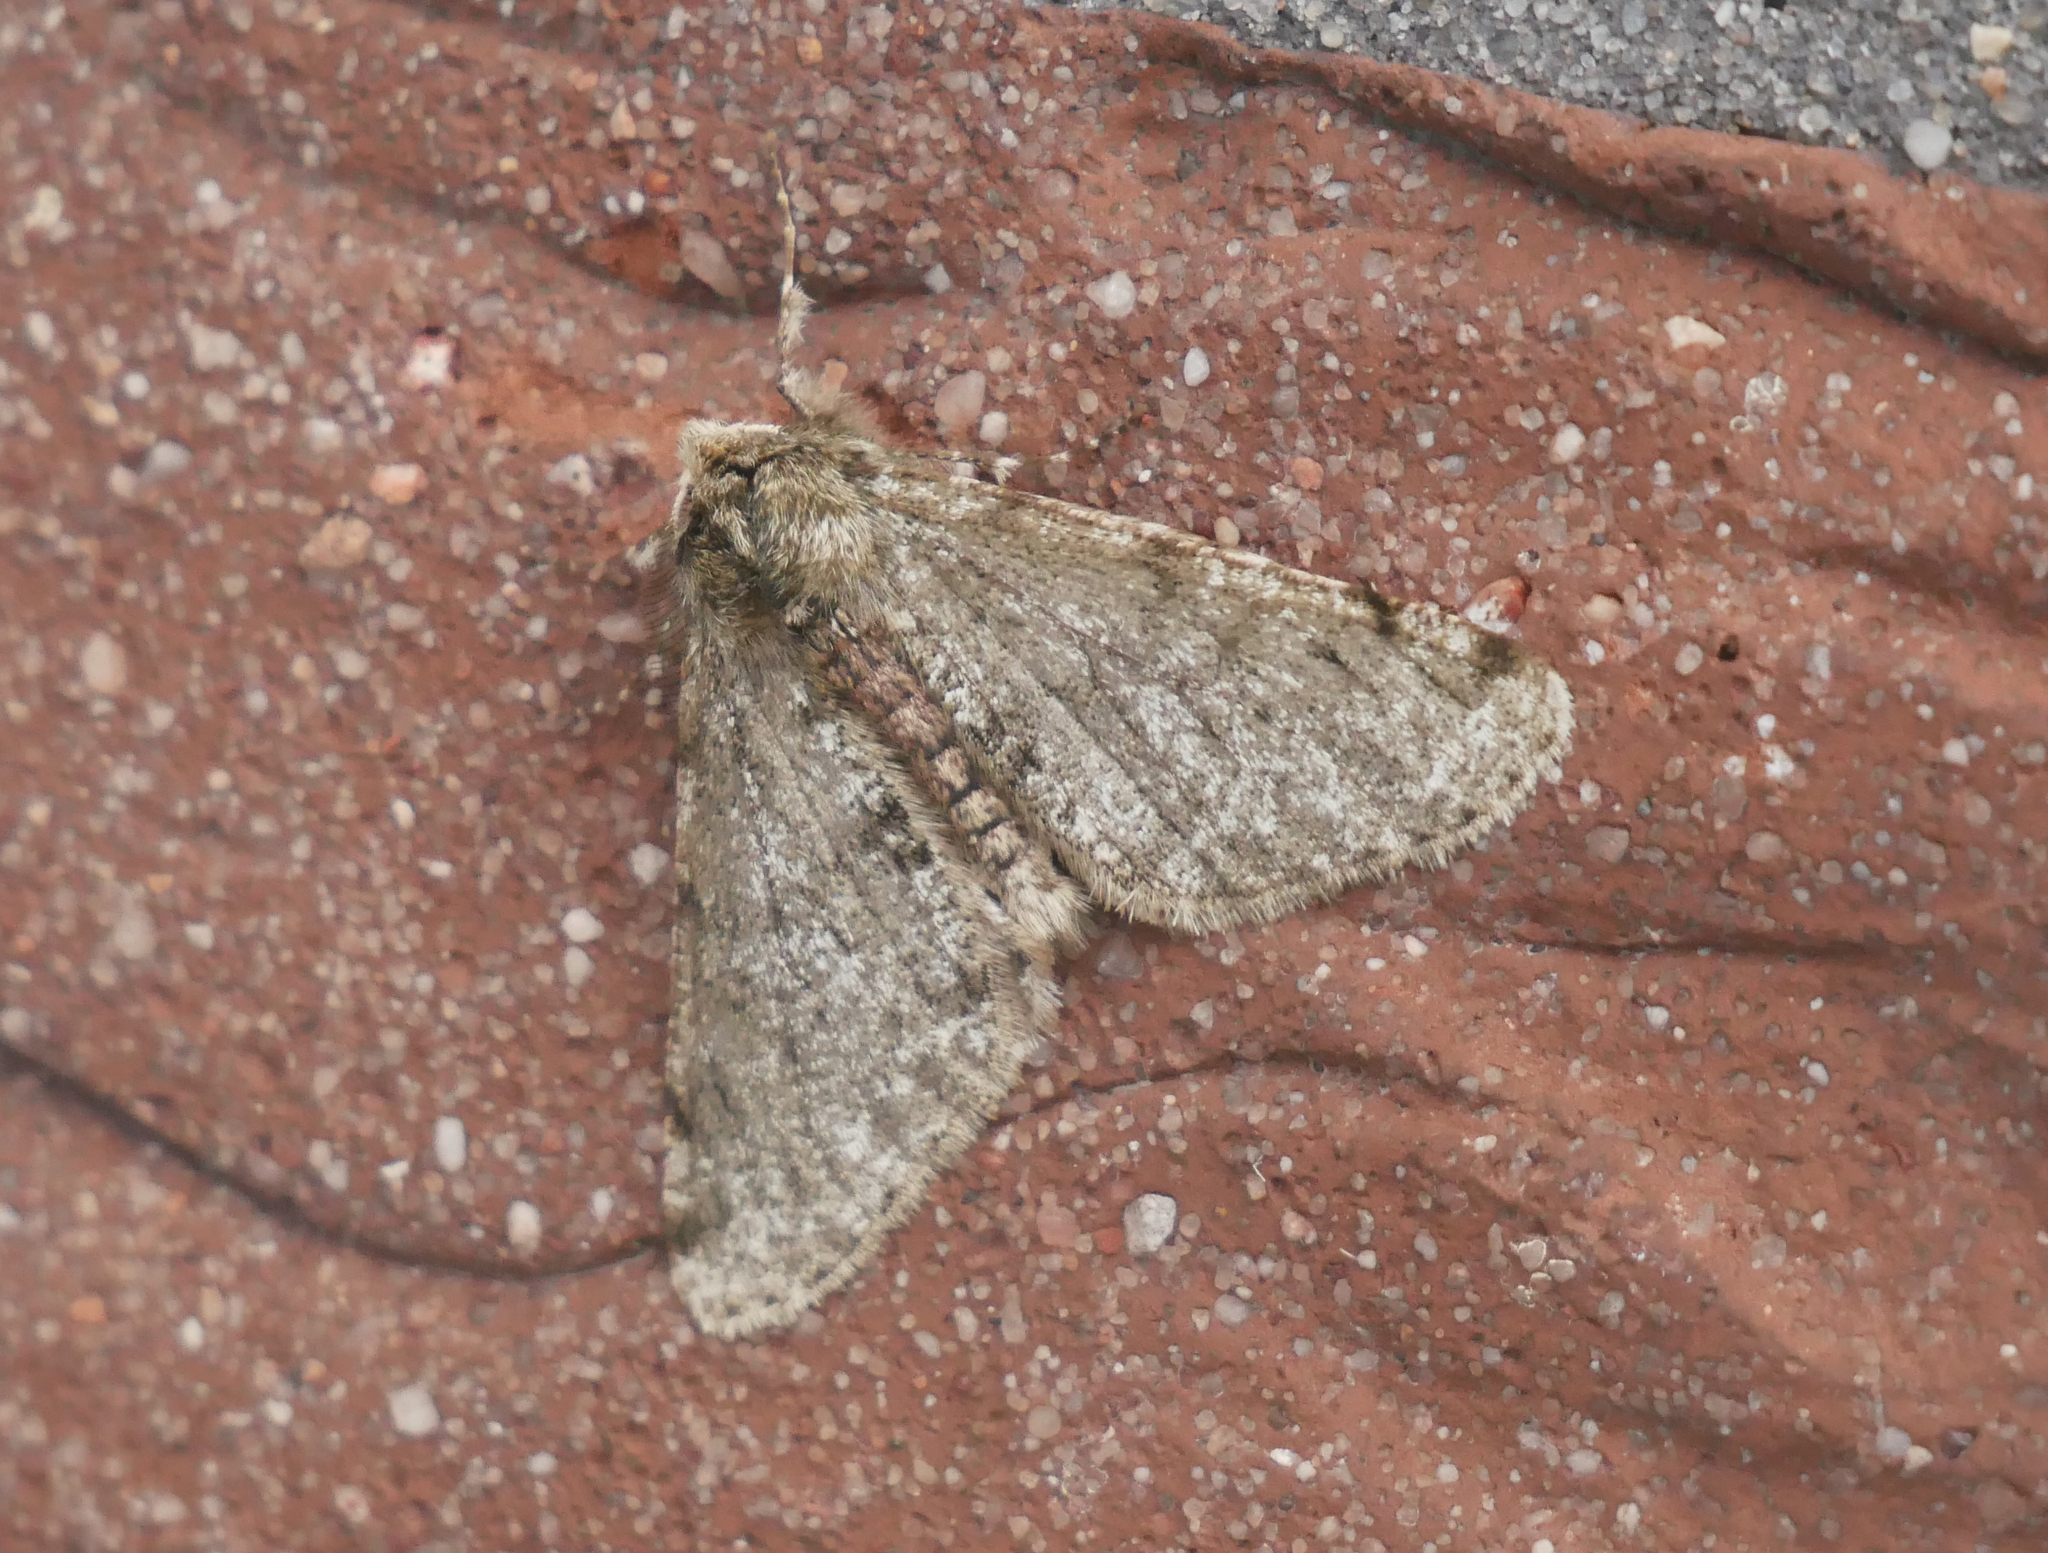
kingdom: Animalia
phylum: Arthropoda
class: Insecta
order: Lepidoptera
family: Geometridae
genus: Phigalia
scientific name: Phigalia pilosaria
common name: Pale brindled beauty
